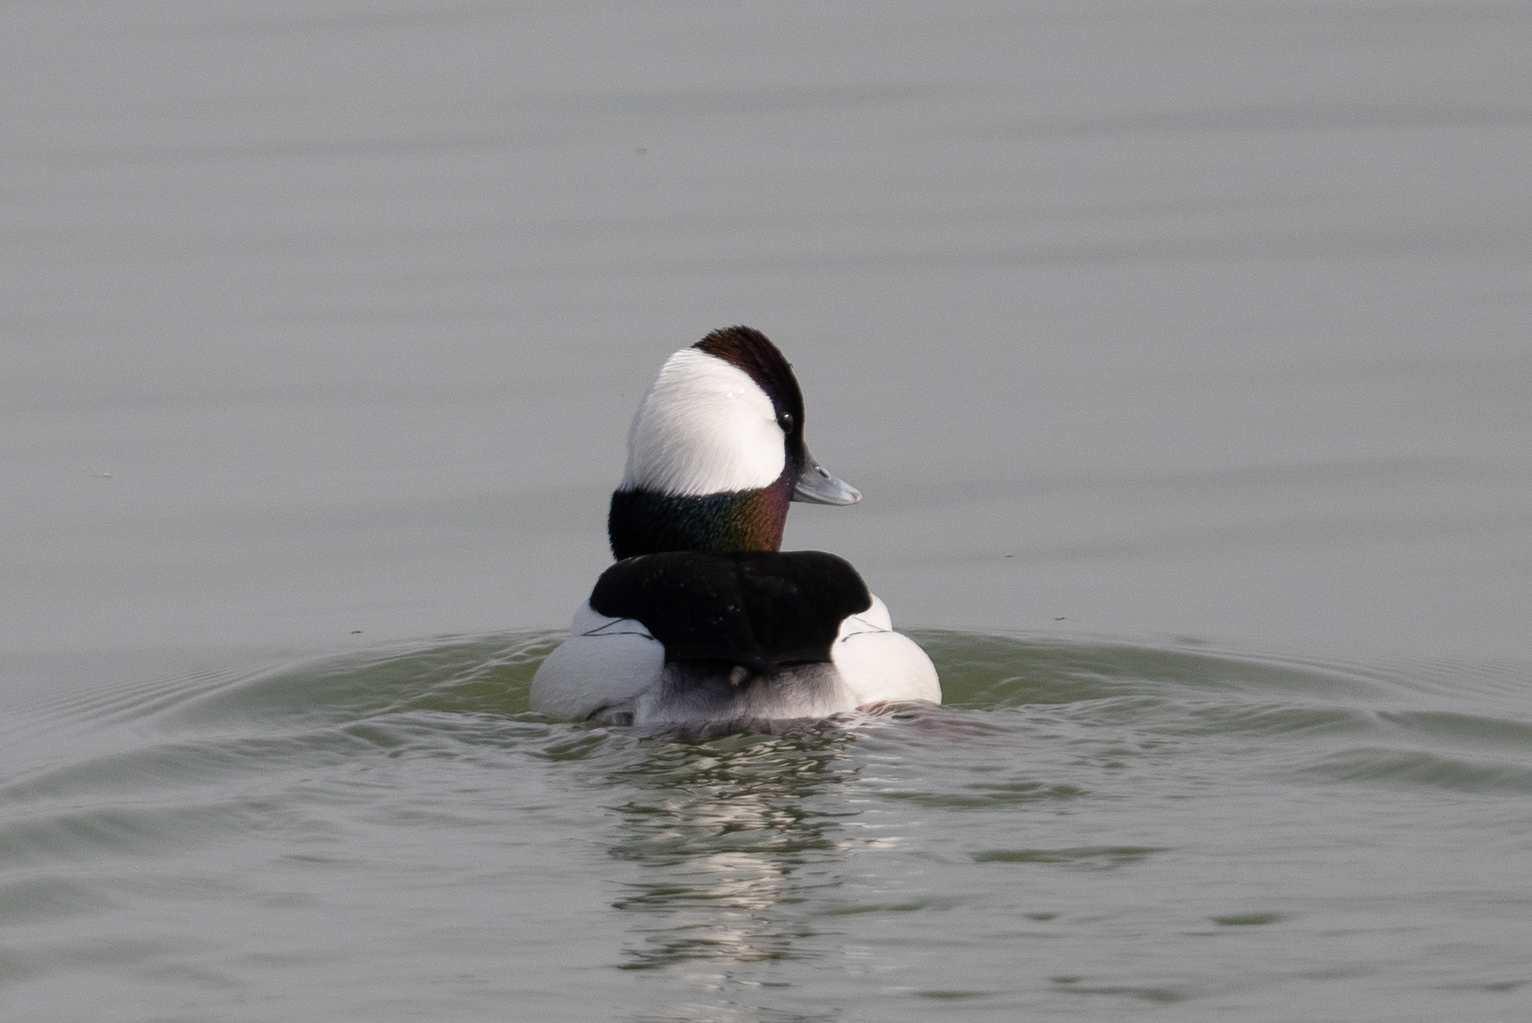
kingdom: Animalia
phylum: Chordata
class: Aves
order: Anseriformes
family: Anatidae
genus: Bucephala
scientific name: Bucephala albeola
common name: Bufflehead
